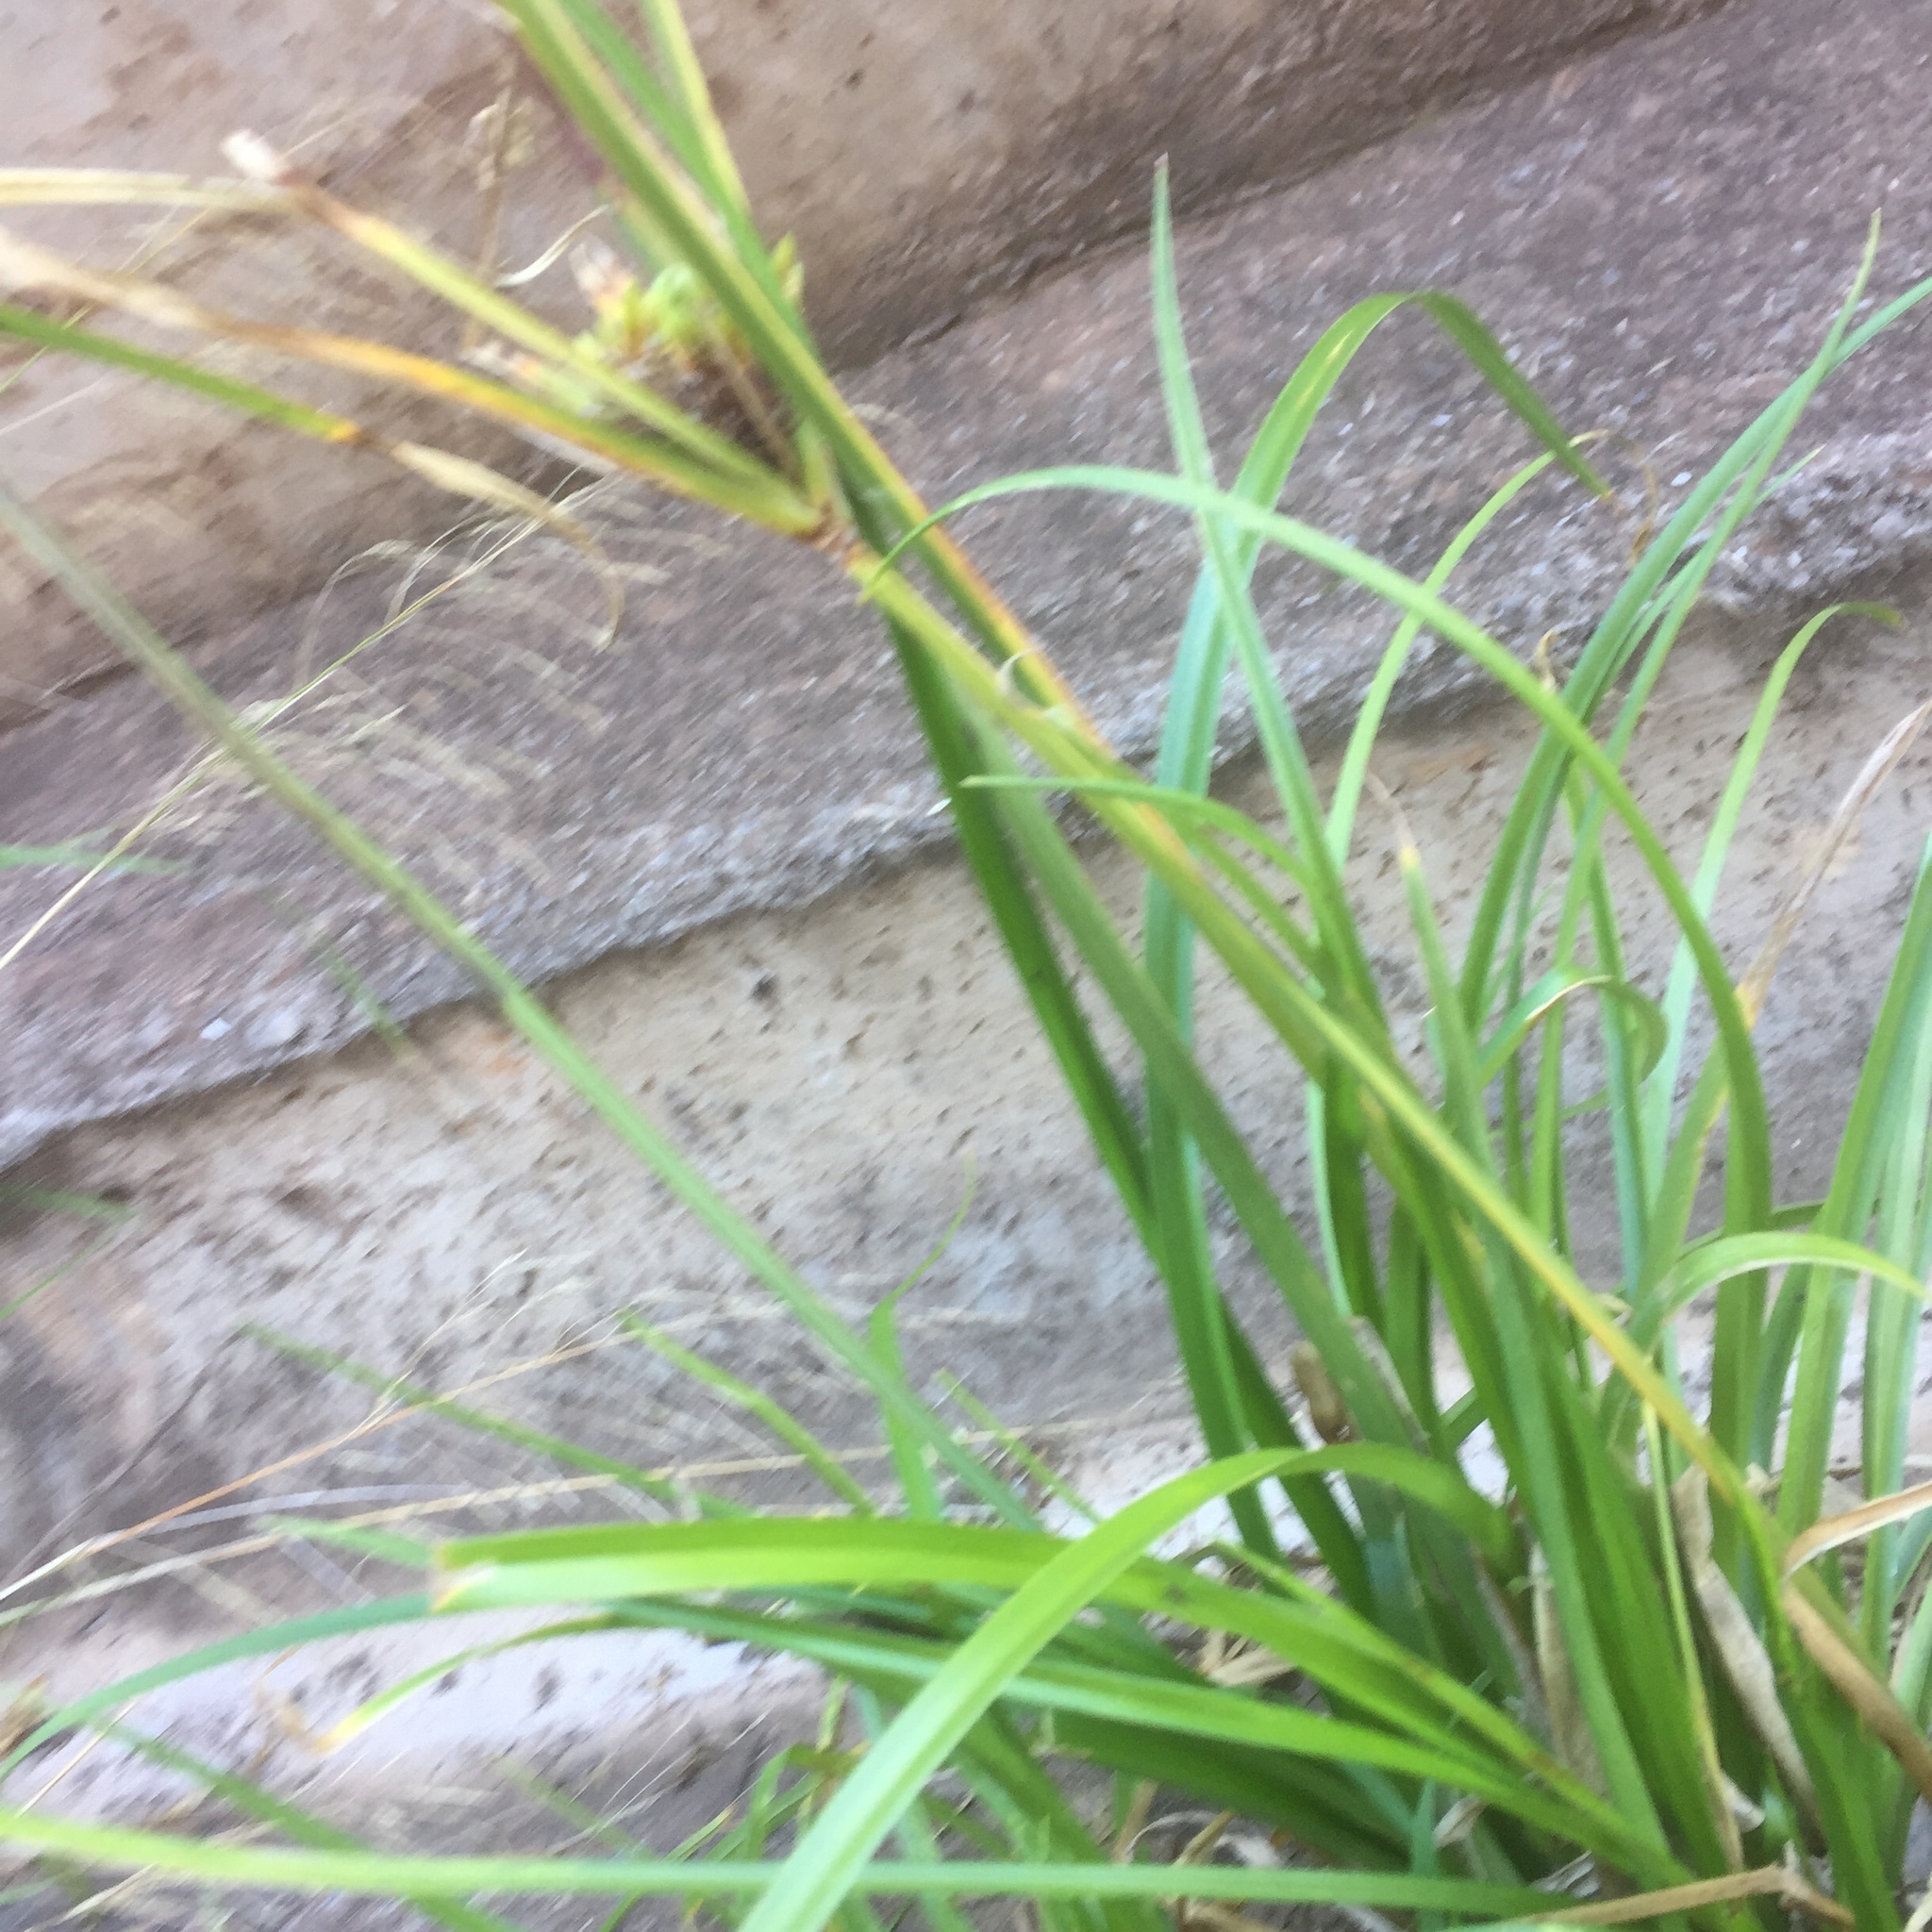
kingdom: Plantae
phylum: Tracheophyta
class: Liliopsida
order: Poales
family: Cyperaceae
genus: Cyperus
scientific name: Cyperus eragrostis
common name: Tall flatsedge
